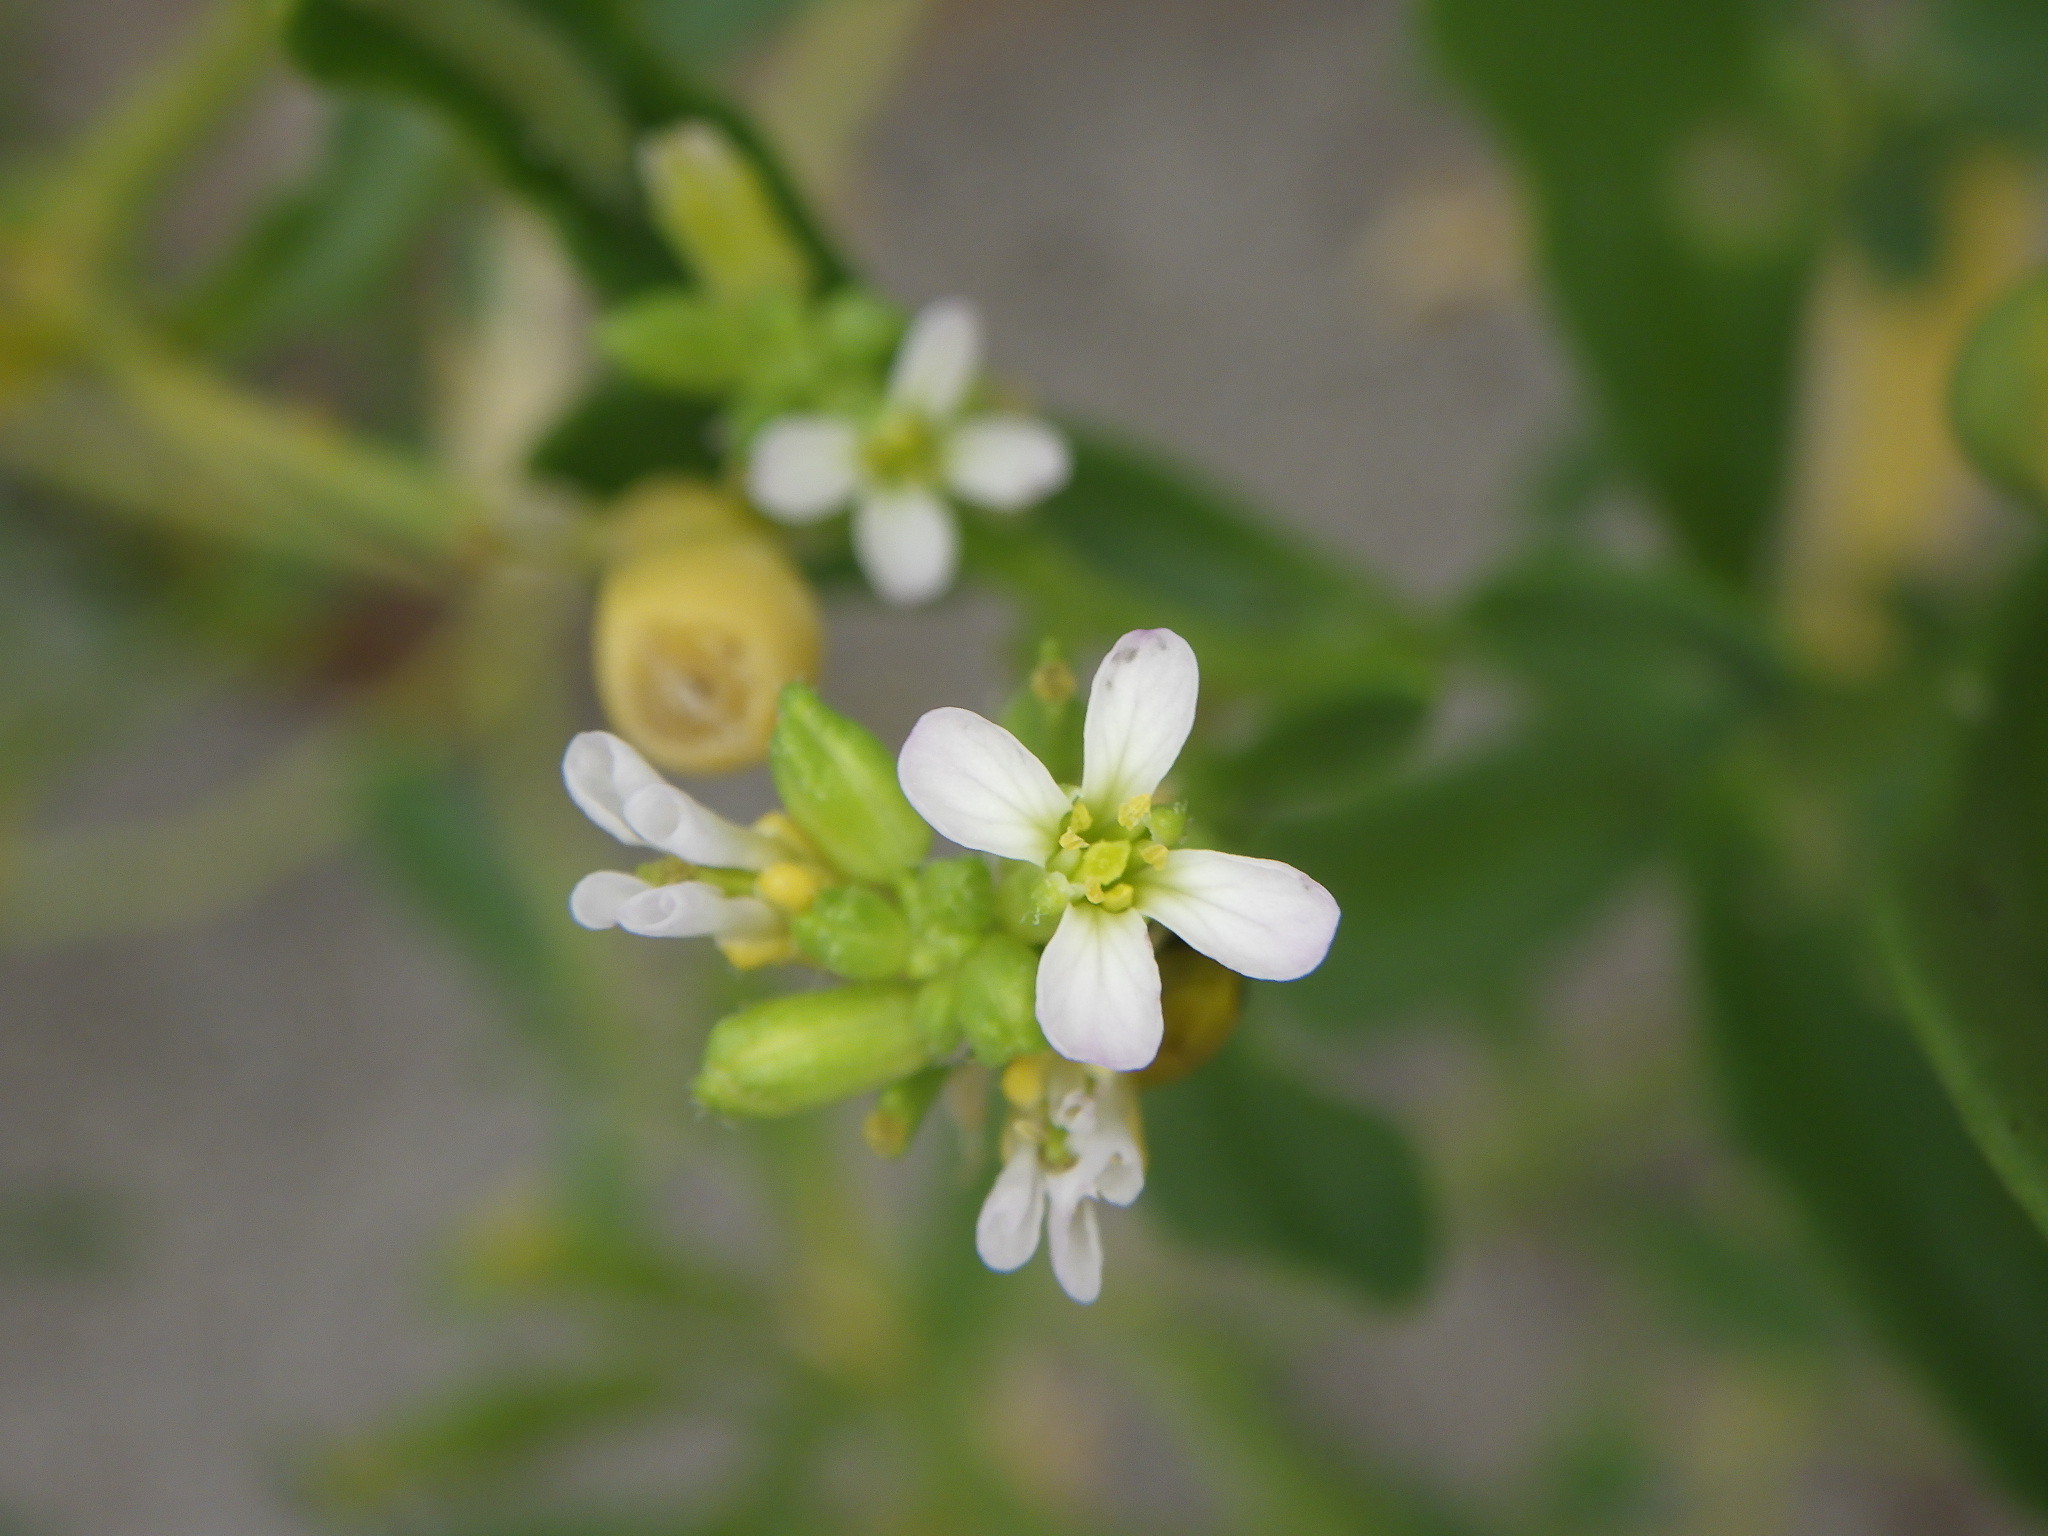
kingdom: Plantae
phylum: Tracheophyta
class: Magnoliopsida
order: Brassicales
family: Brassicaceae
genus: Cakile
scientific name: Cakile edentula
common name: American sea rocket
